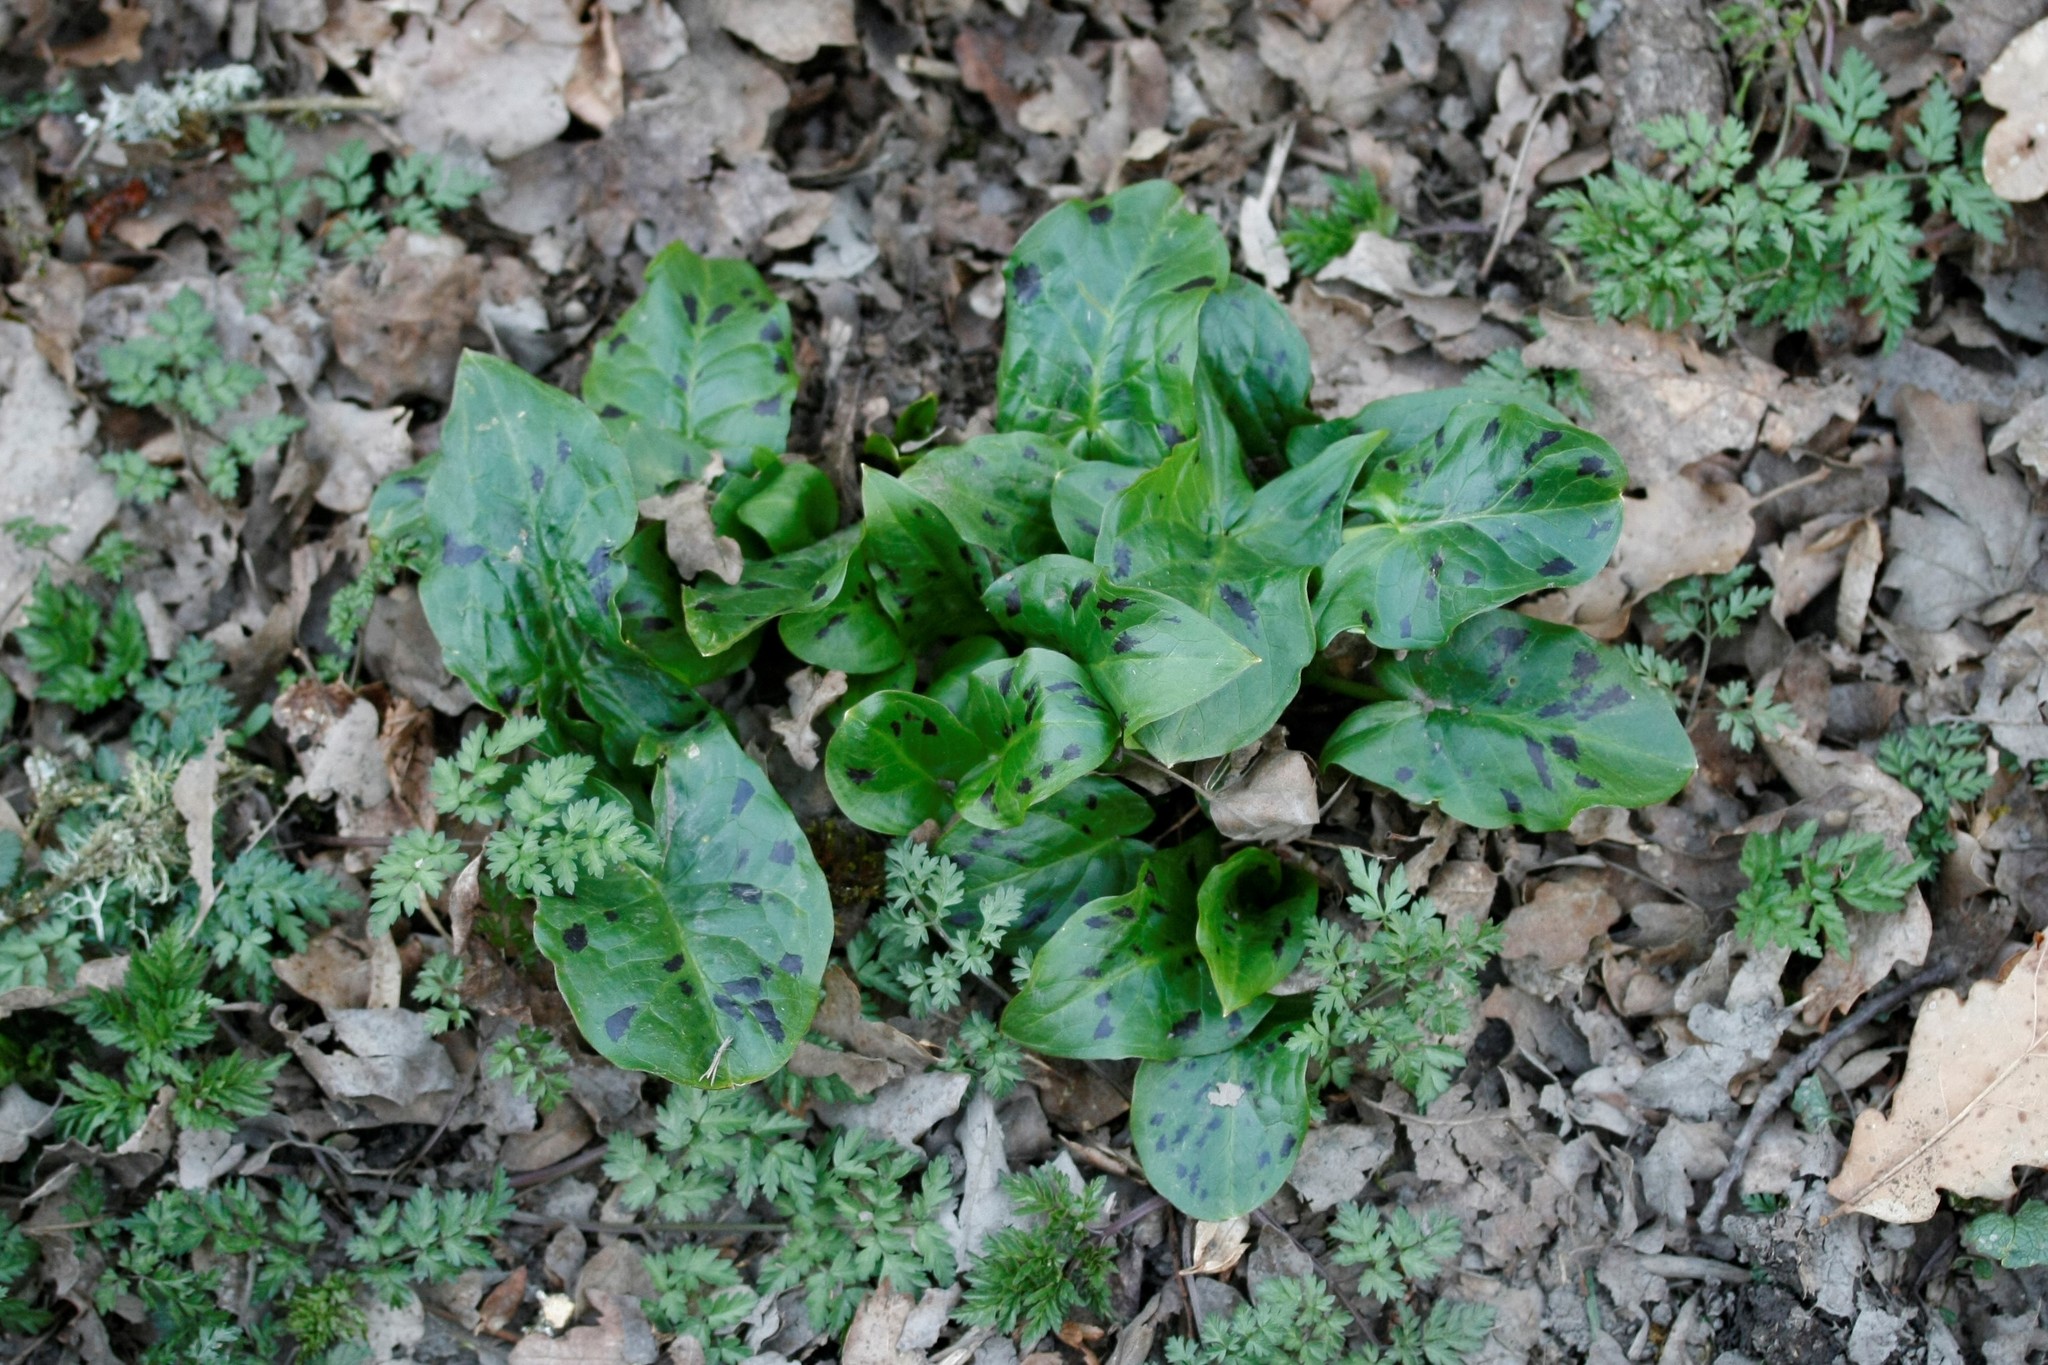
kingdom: Plantae
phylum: Tracheophyta
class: Liliopsida
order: Alismatales
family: Araceae
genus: Arum
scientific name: Arum maculatum
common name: Lords-and-ladies
